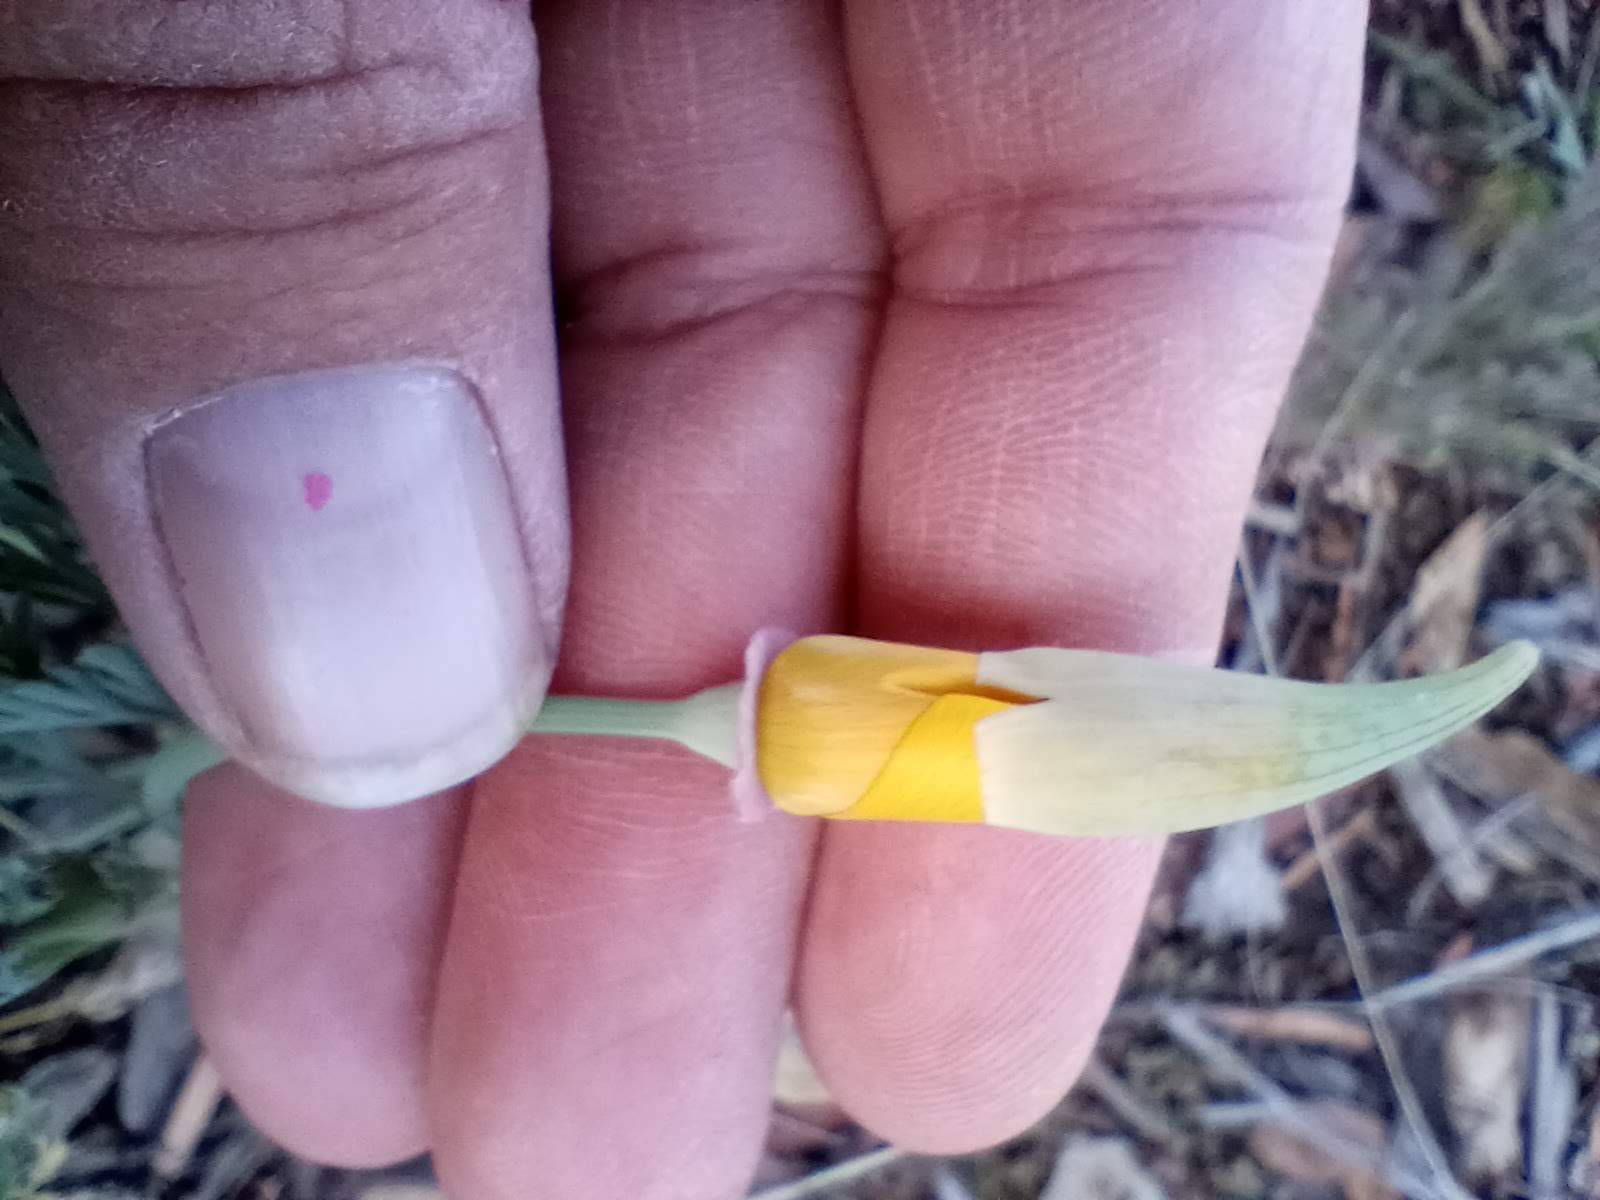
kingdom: Plantae
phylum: Tracheophyta
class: Magnoliopsida
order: Ranunculales
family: Papaveraceae
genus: Eschscholzia
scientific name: Eschscholzia californica
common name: California poppy
